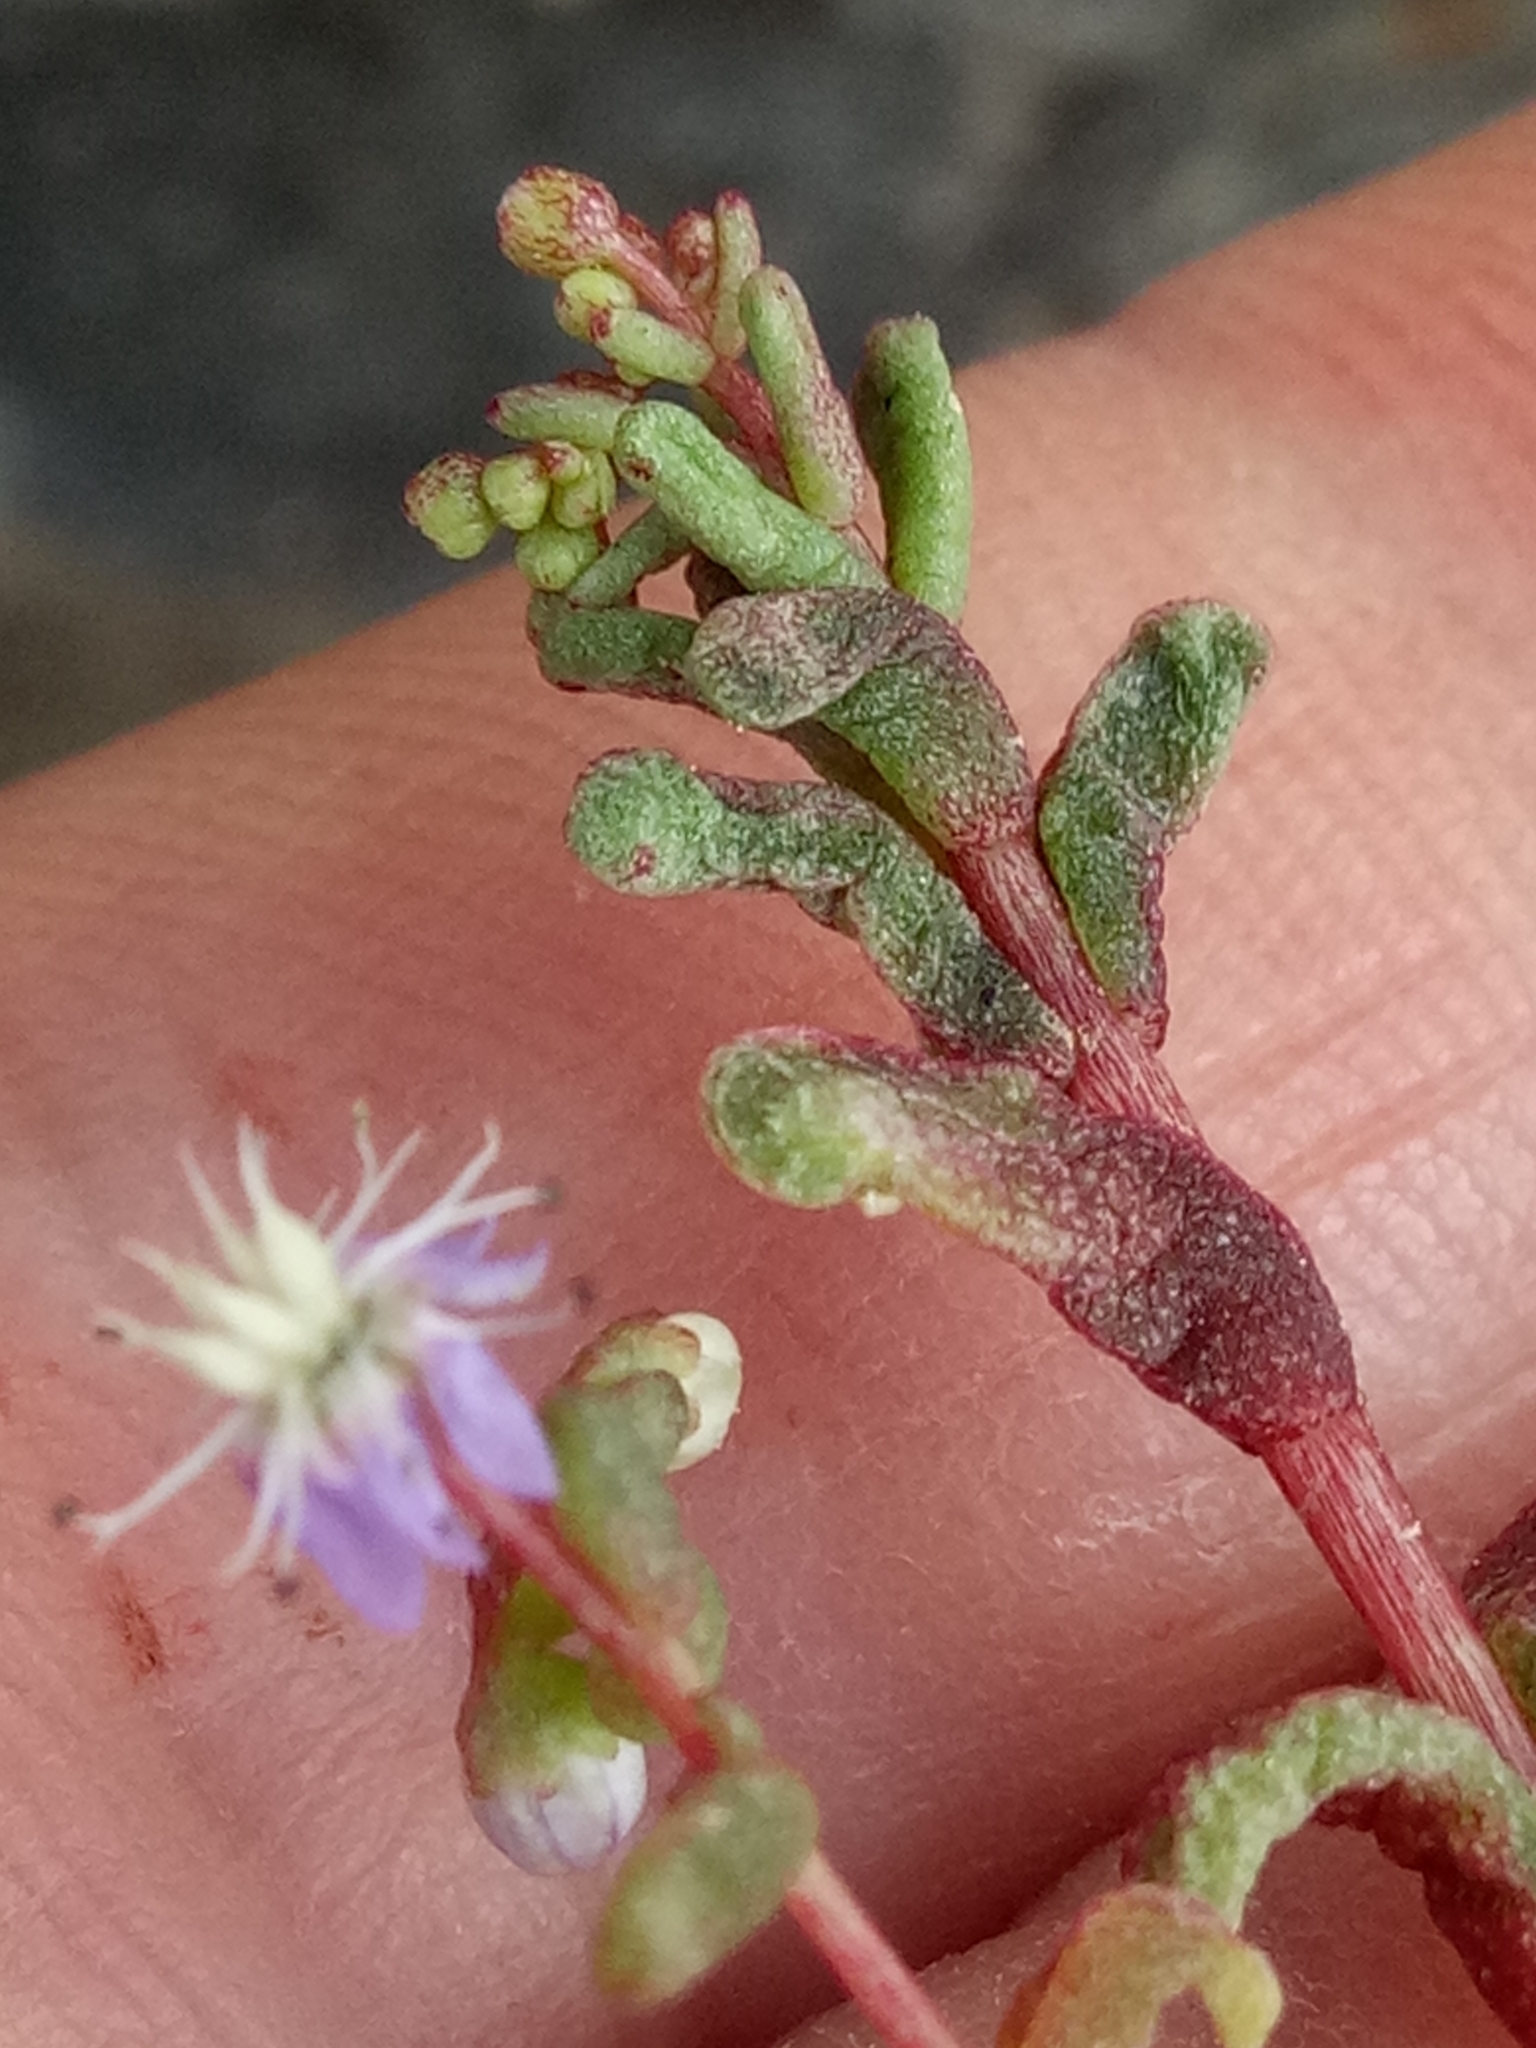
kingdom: Plantae
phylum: Tracheophyta
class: Magnoliopsida
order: Saxifragales
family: Crassulaceae
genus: Sedum
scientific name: Sedum caeruleum
